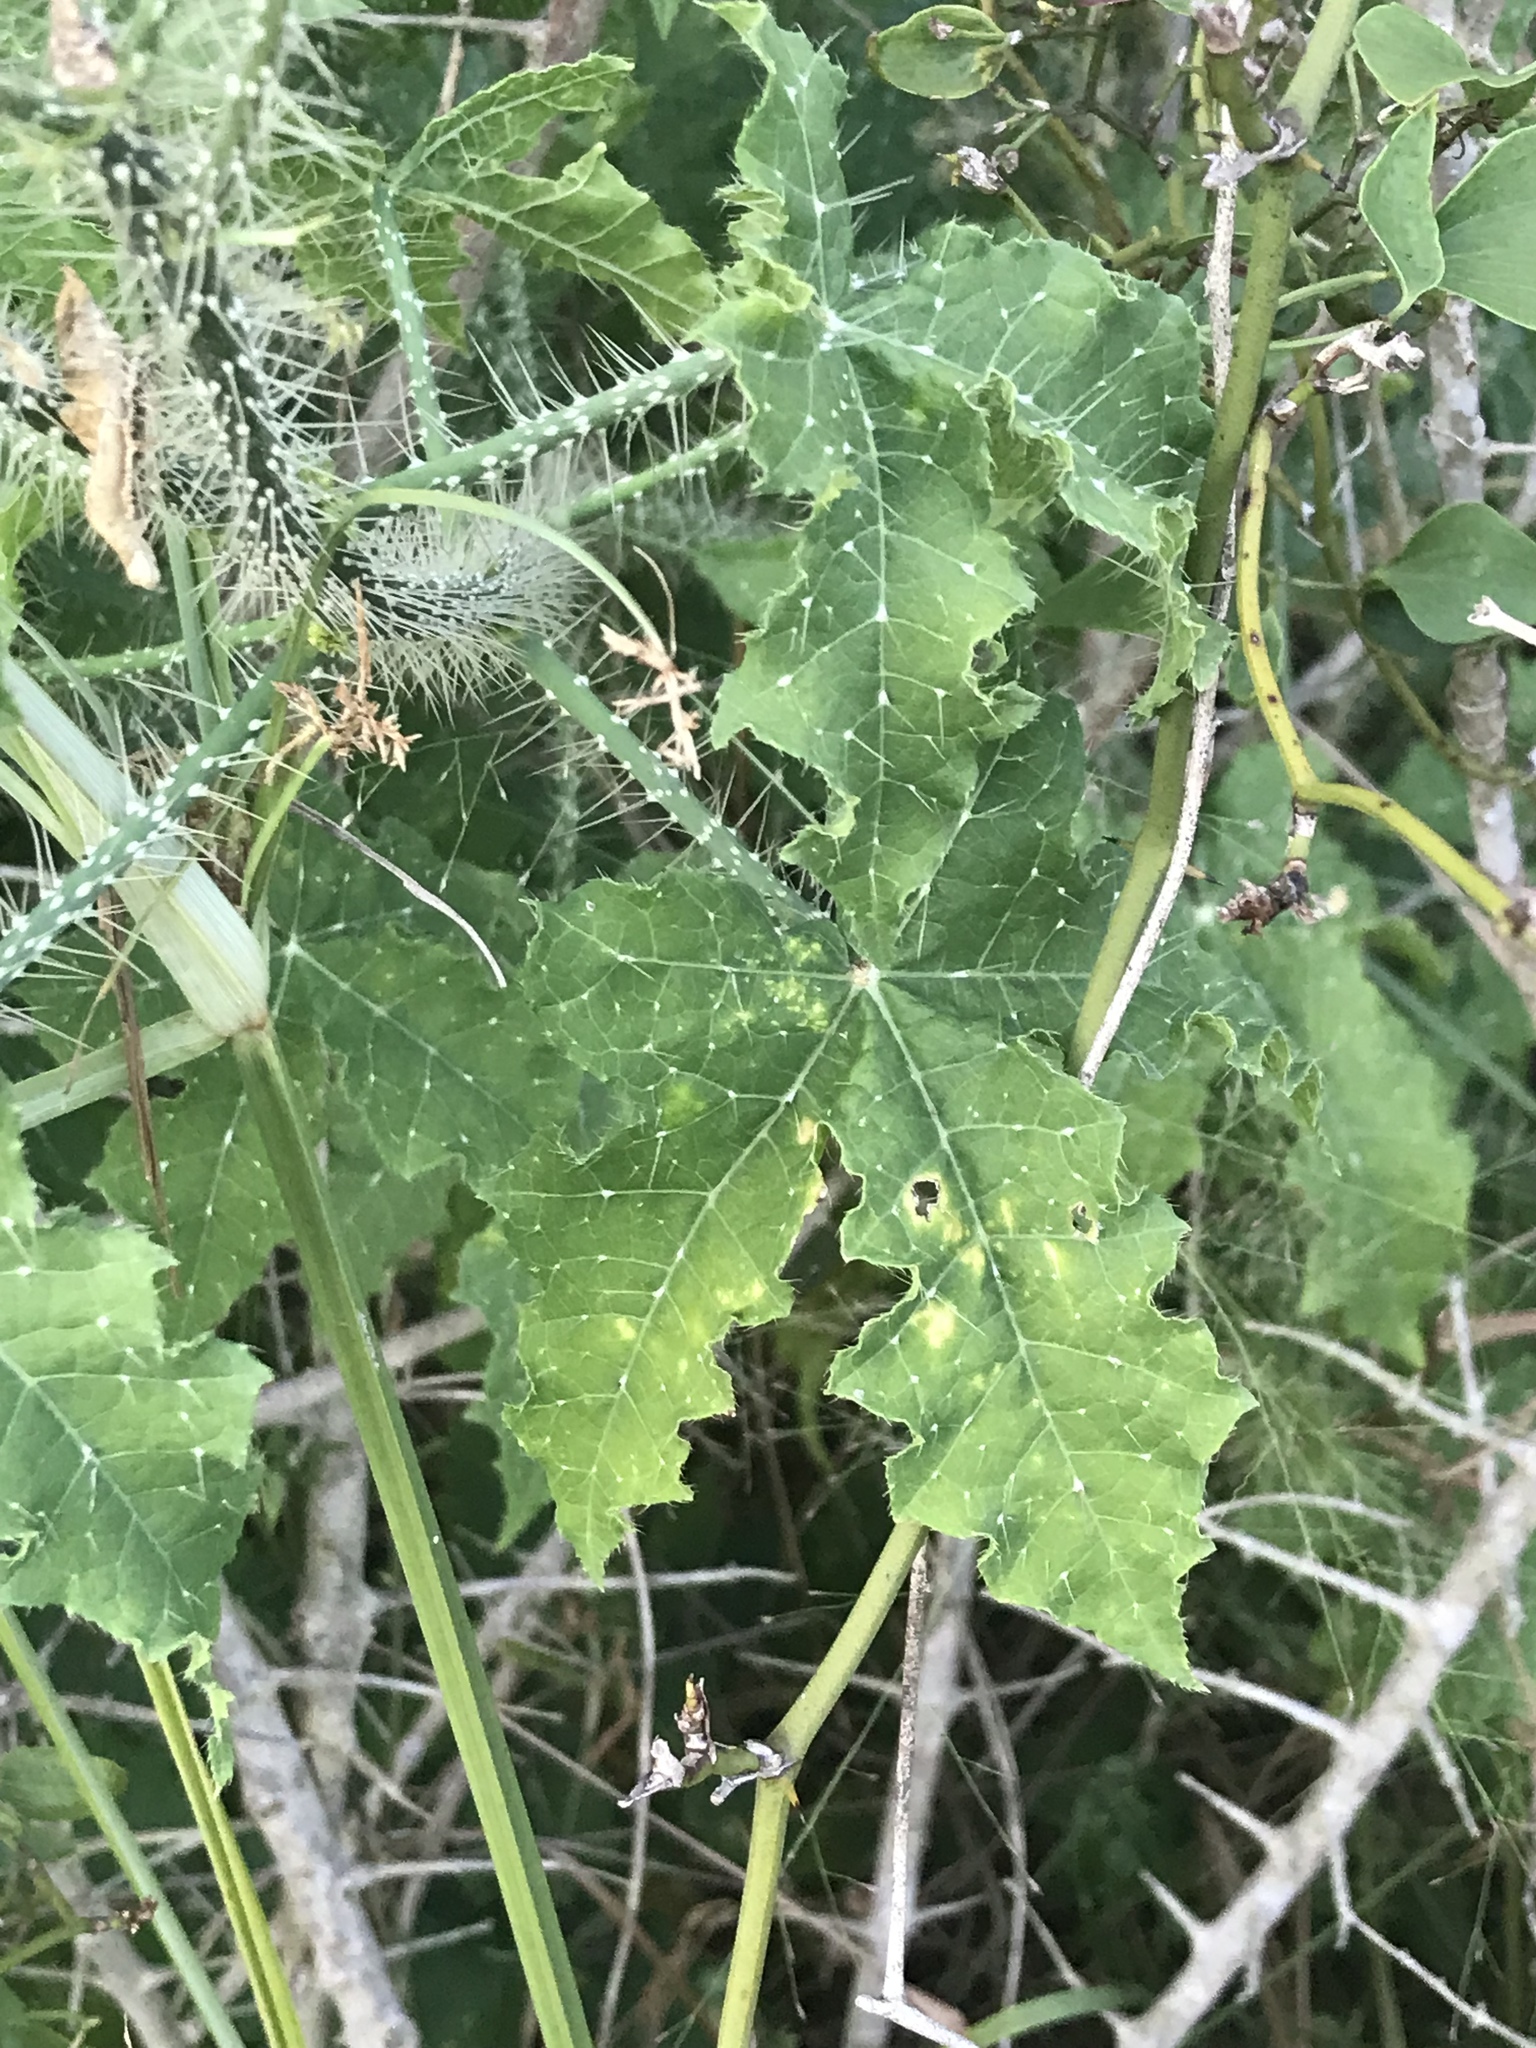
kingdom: Plantae
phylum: Tracheophyta
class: Magnoliopsida
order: Malpighiales
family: Euphorbiaceae
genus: Cnidoscolus
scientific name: Cnidoscolus texanus
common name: Texas bull-nettle
